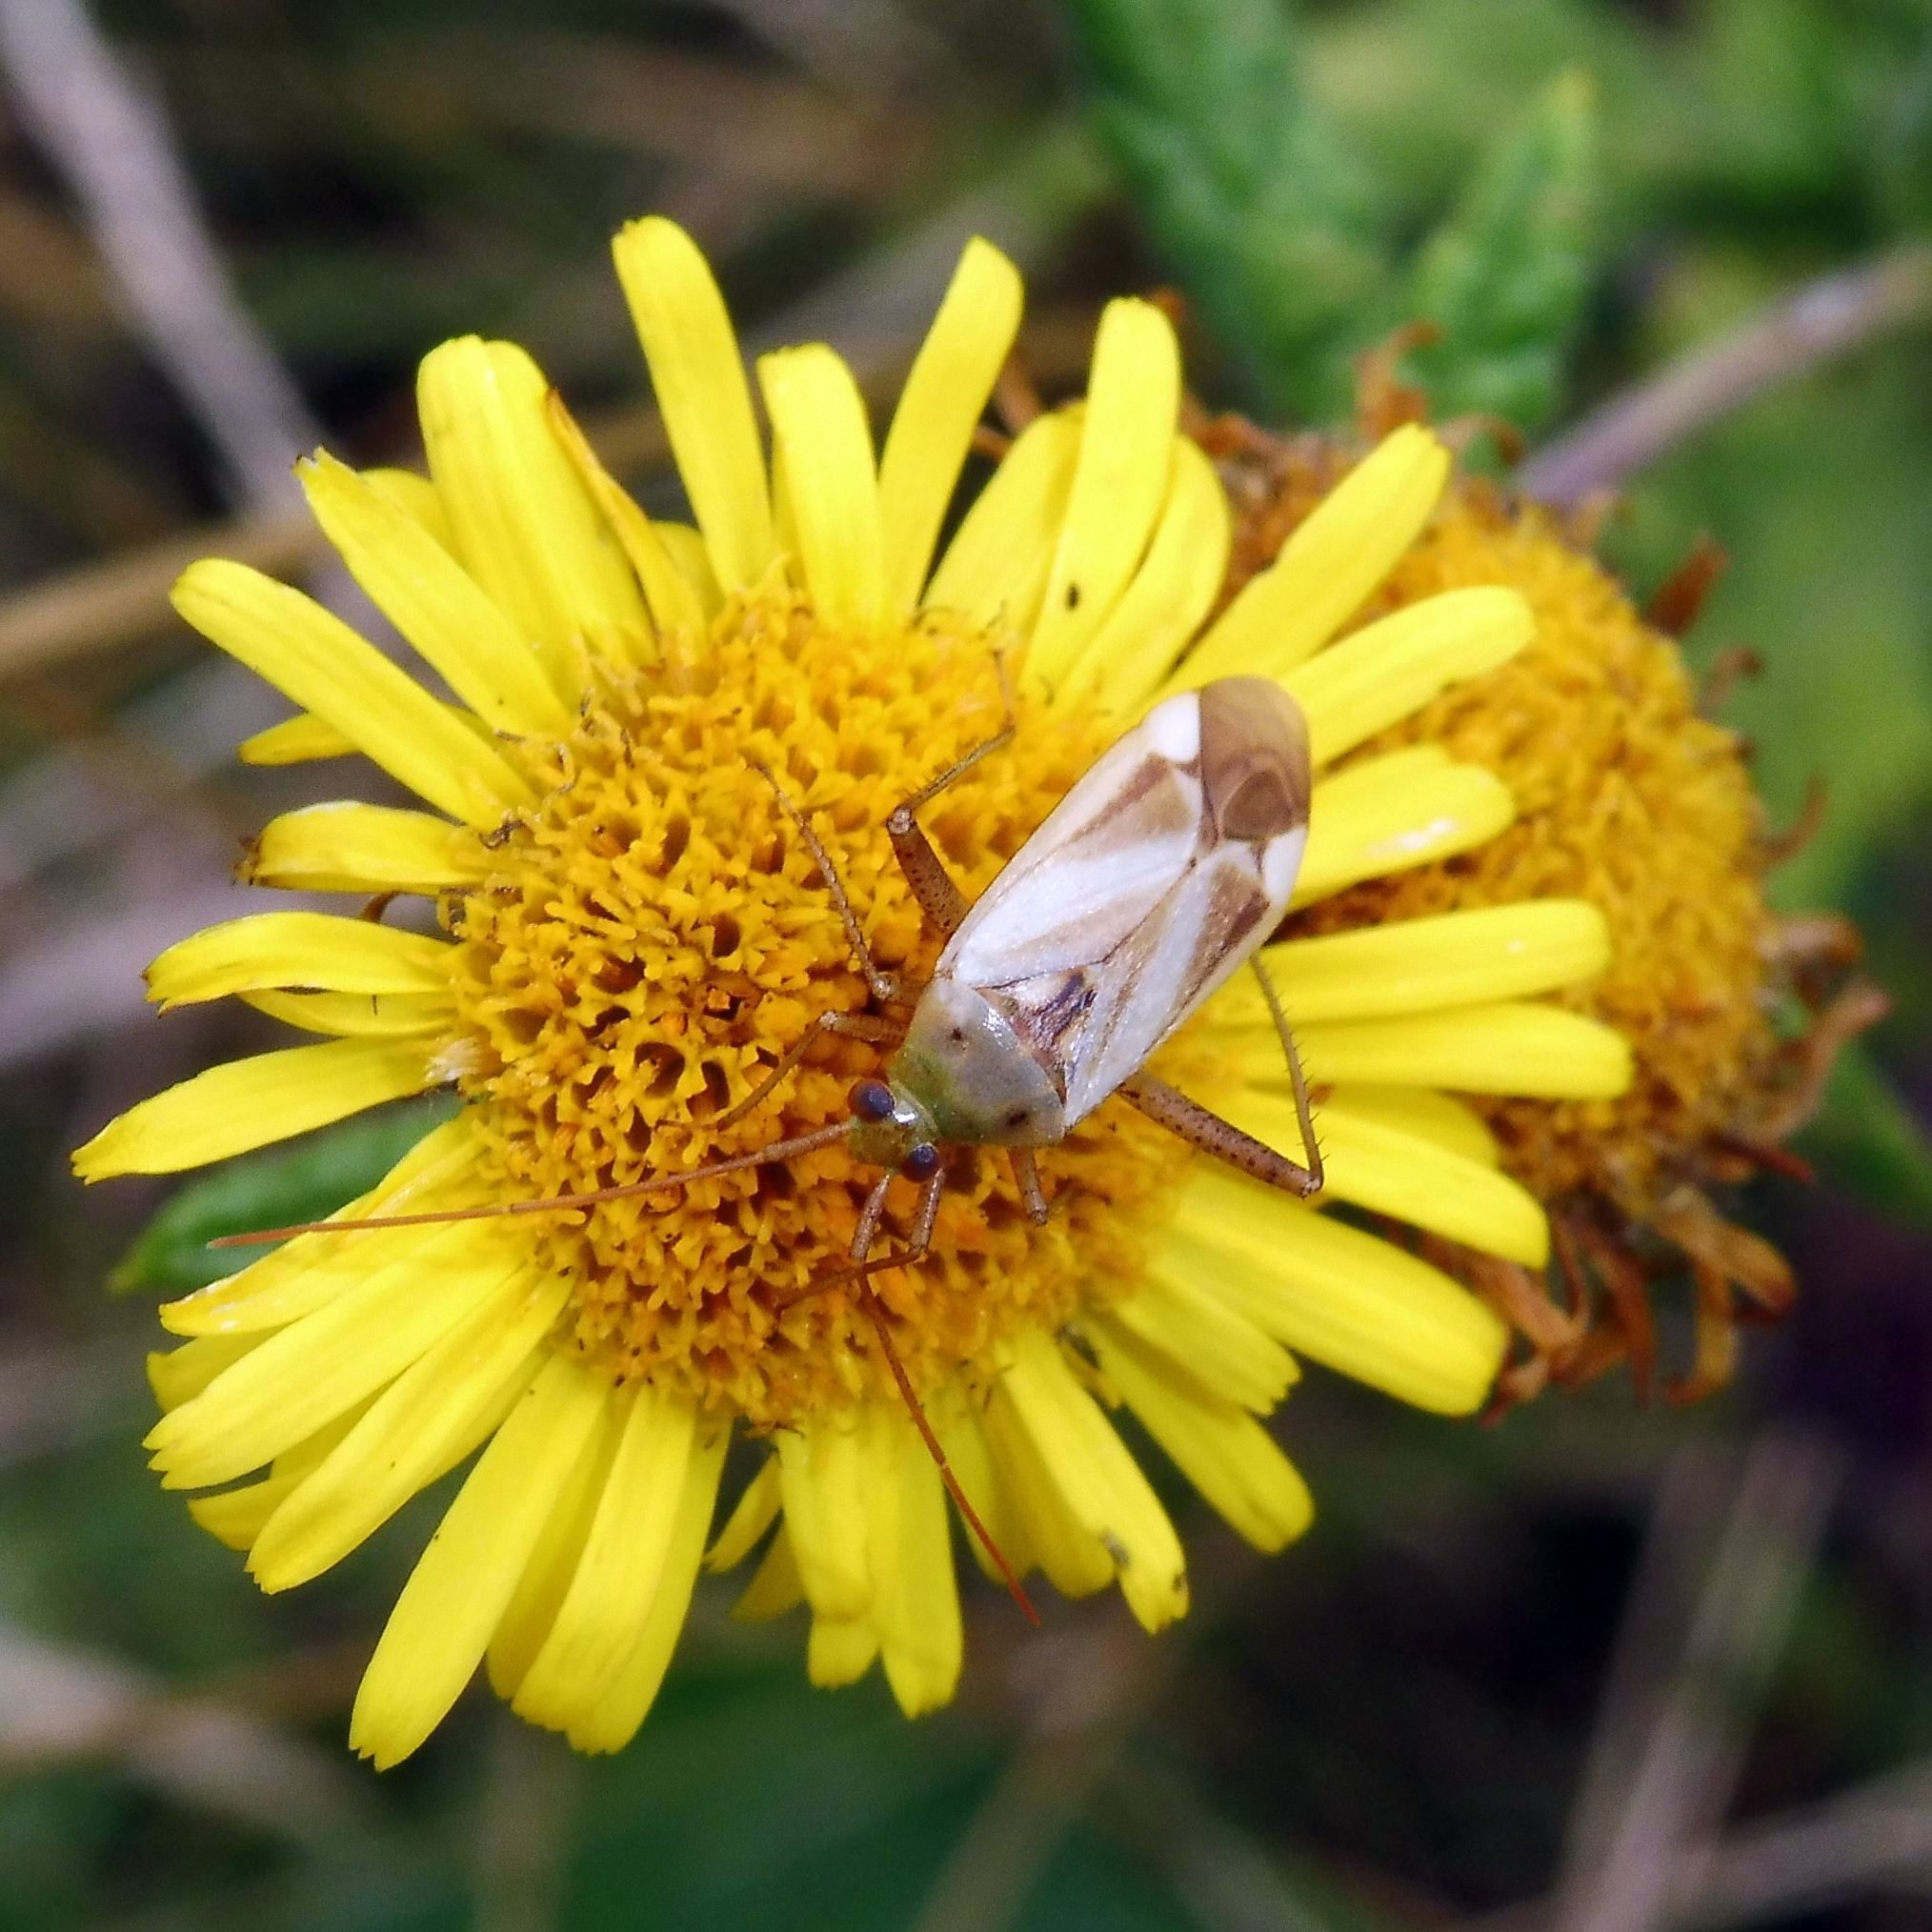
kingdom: Animalia
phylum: Arthropoda
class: Insecta
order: Hemiptera
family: Miridae
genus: Adelphocoris
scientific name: Adelphocoris lineolatus
